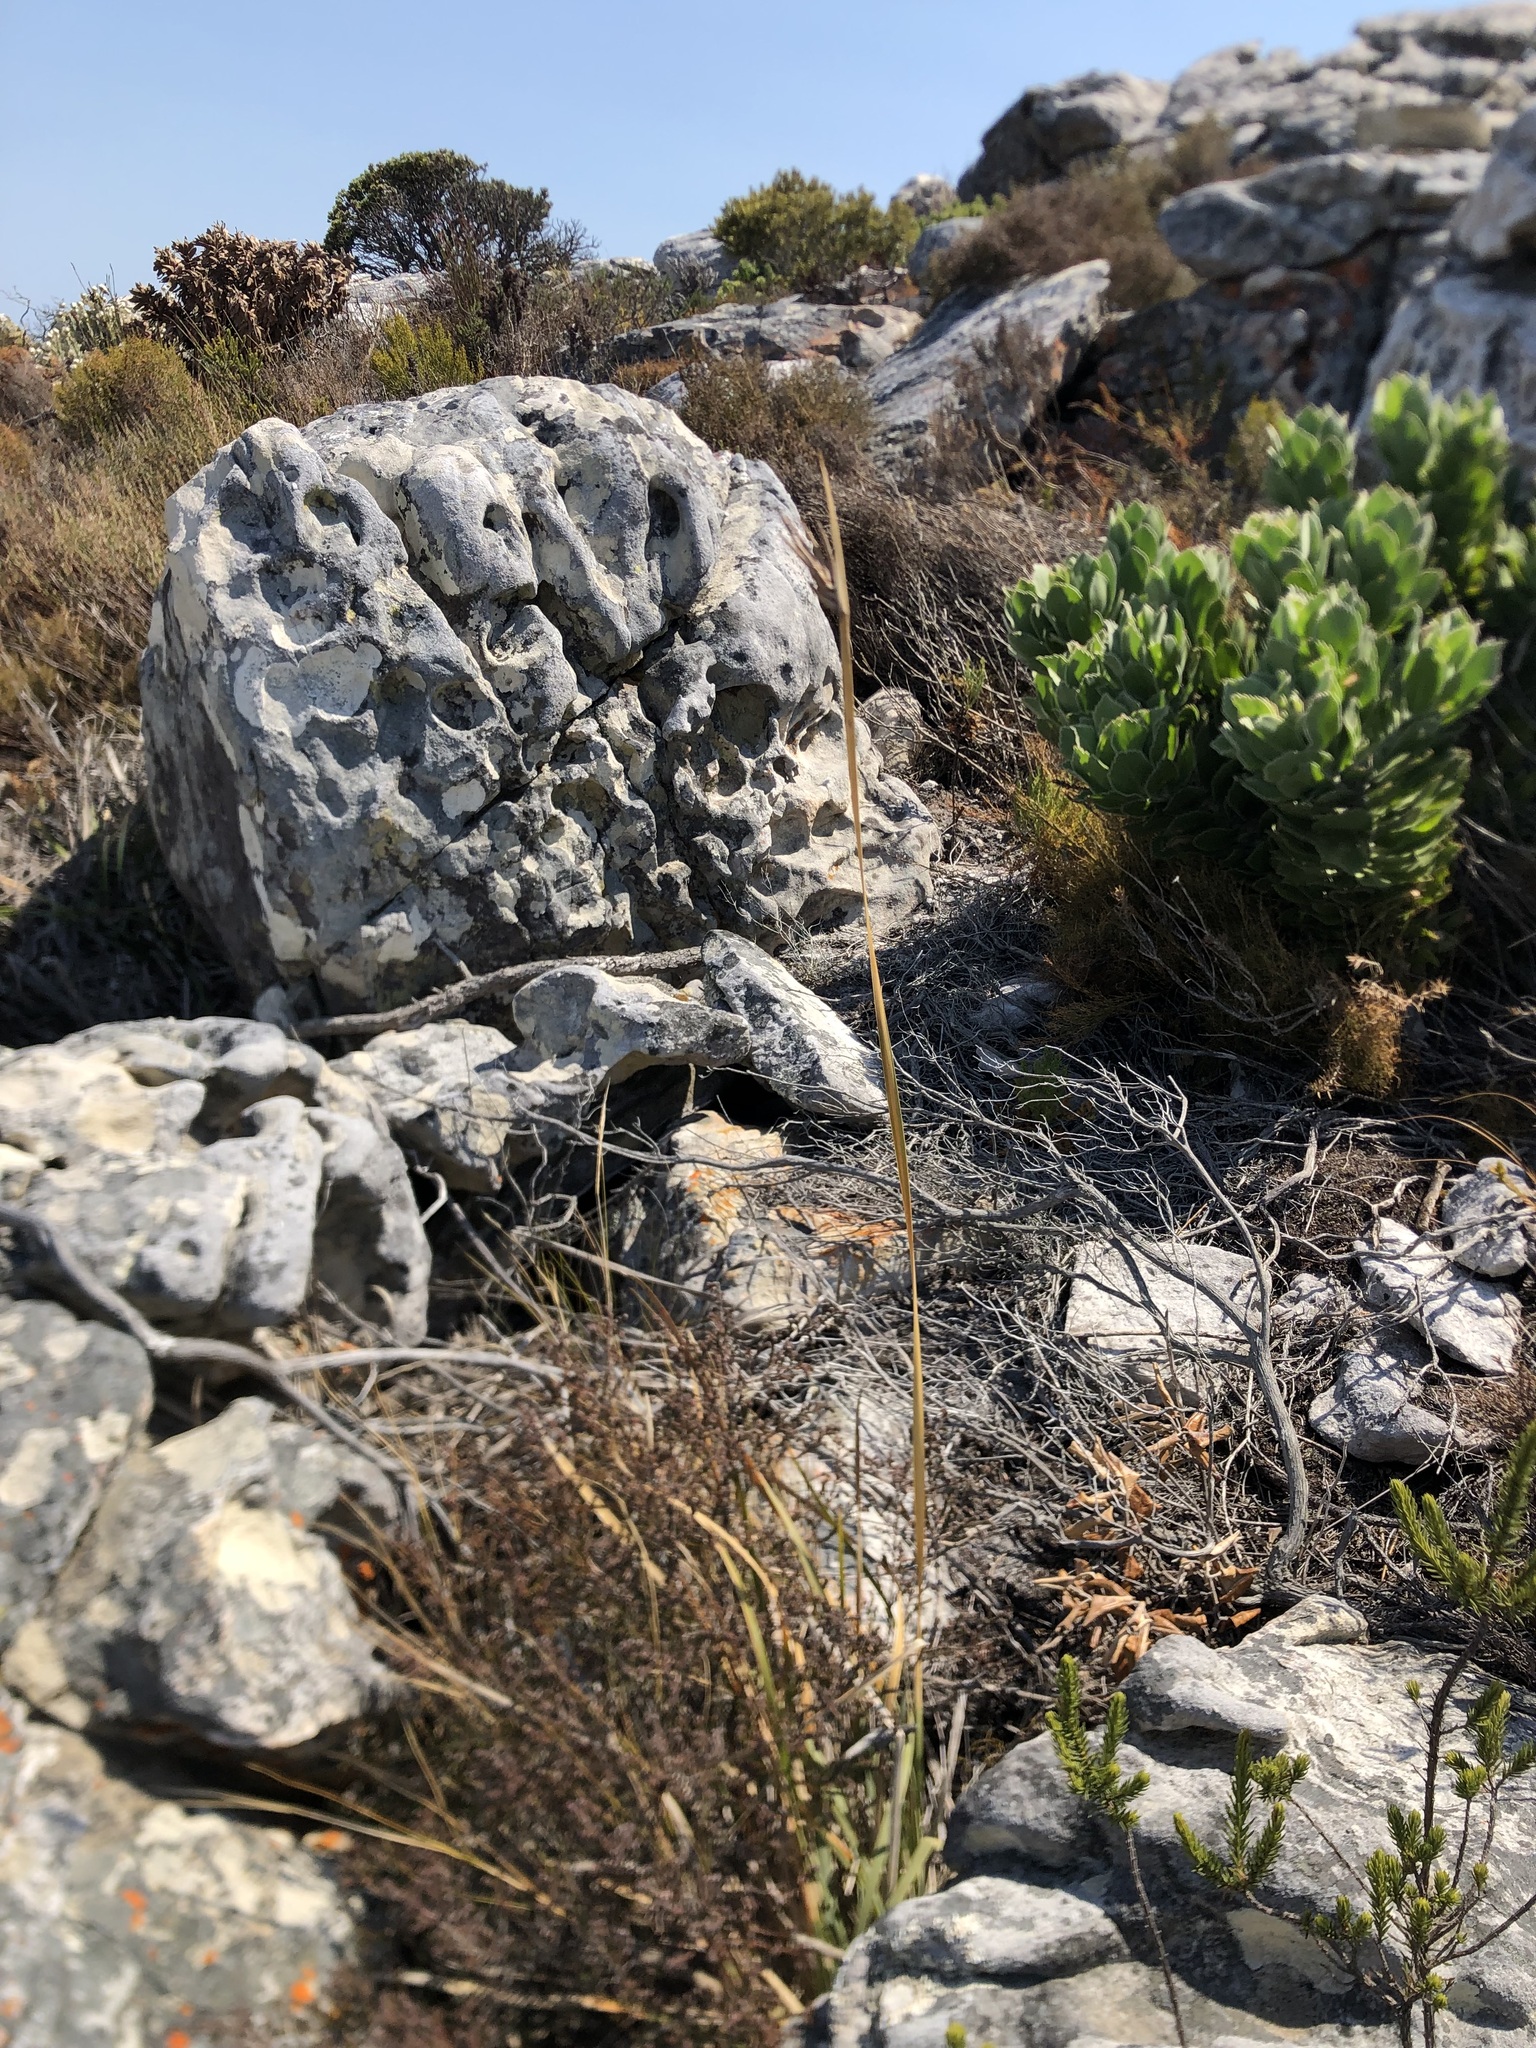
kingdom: Plantae
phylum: Tracheophyta
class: Liliopsida
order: Asparagales
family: Iridaceae
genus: Bobartia
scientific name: Bobartia gladiata
